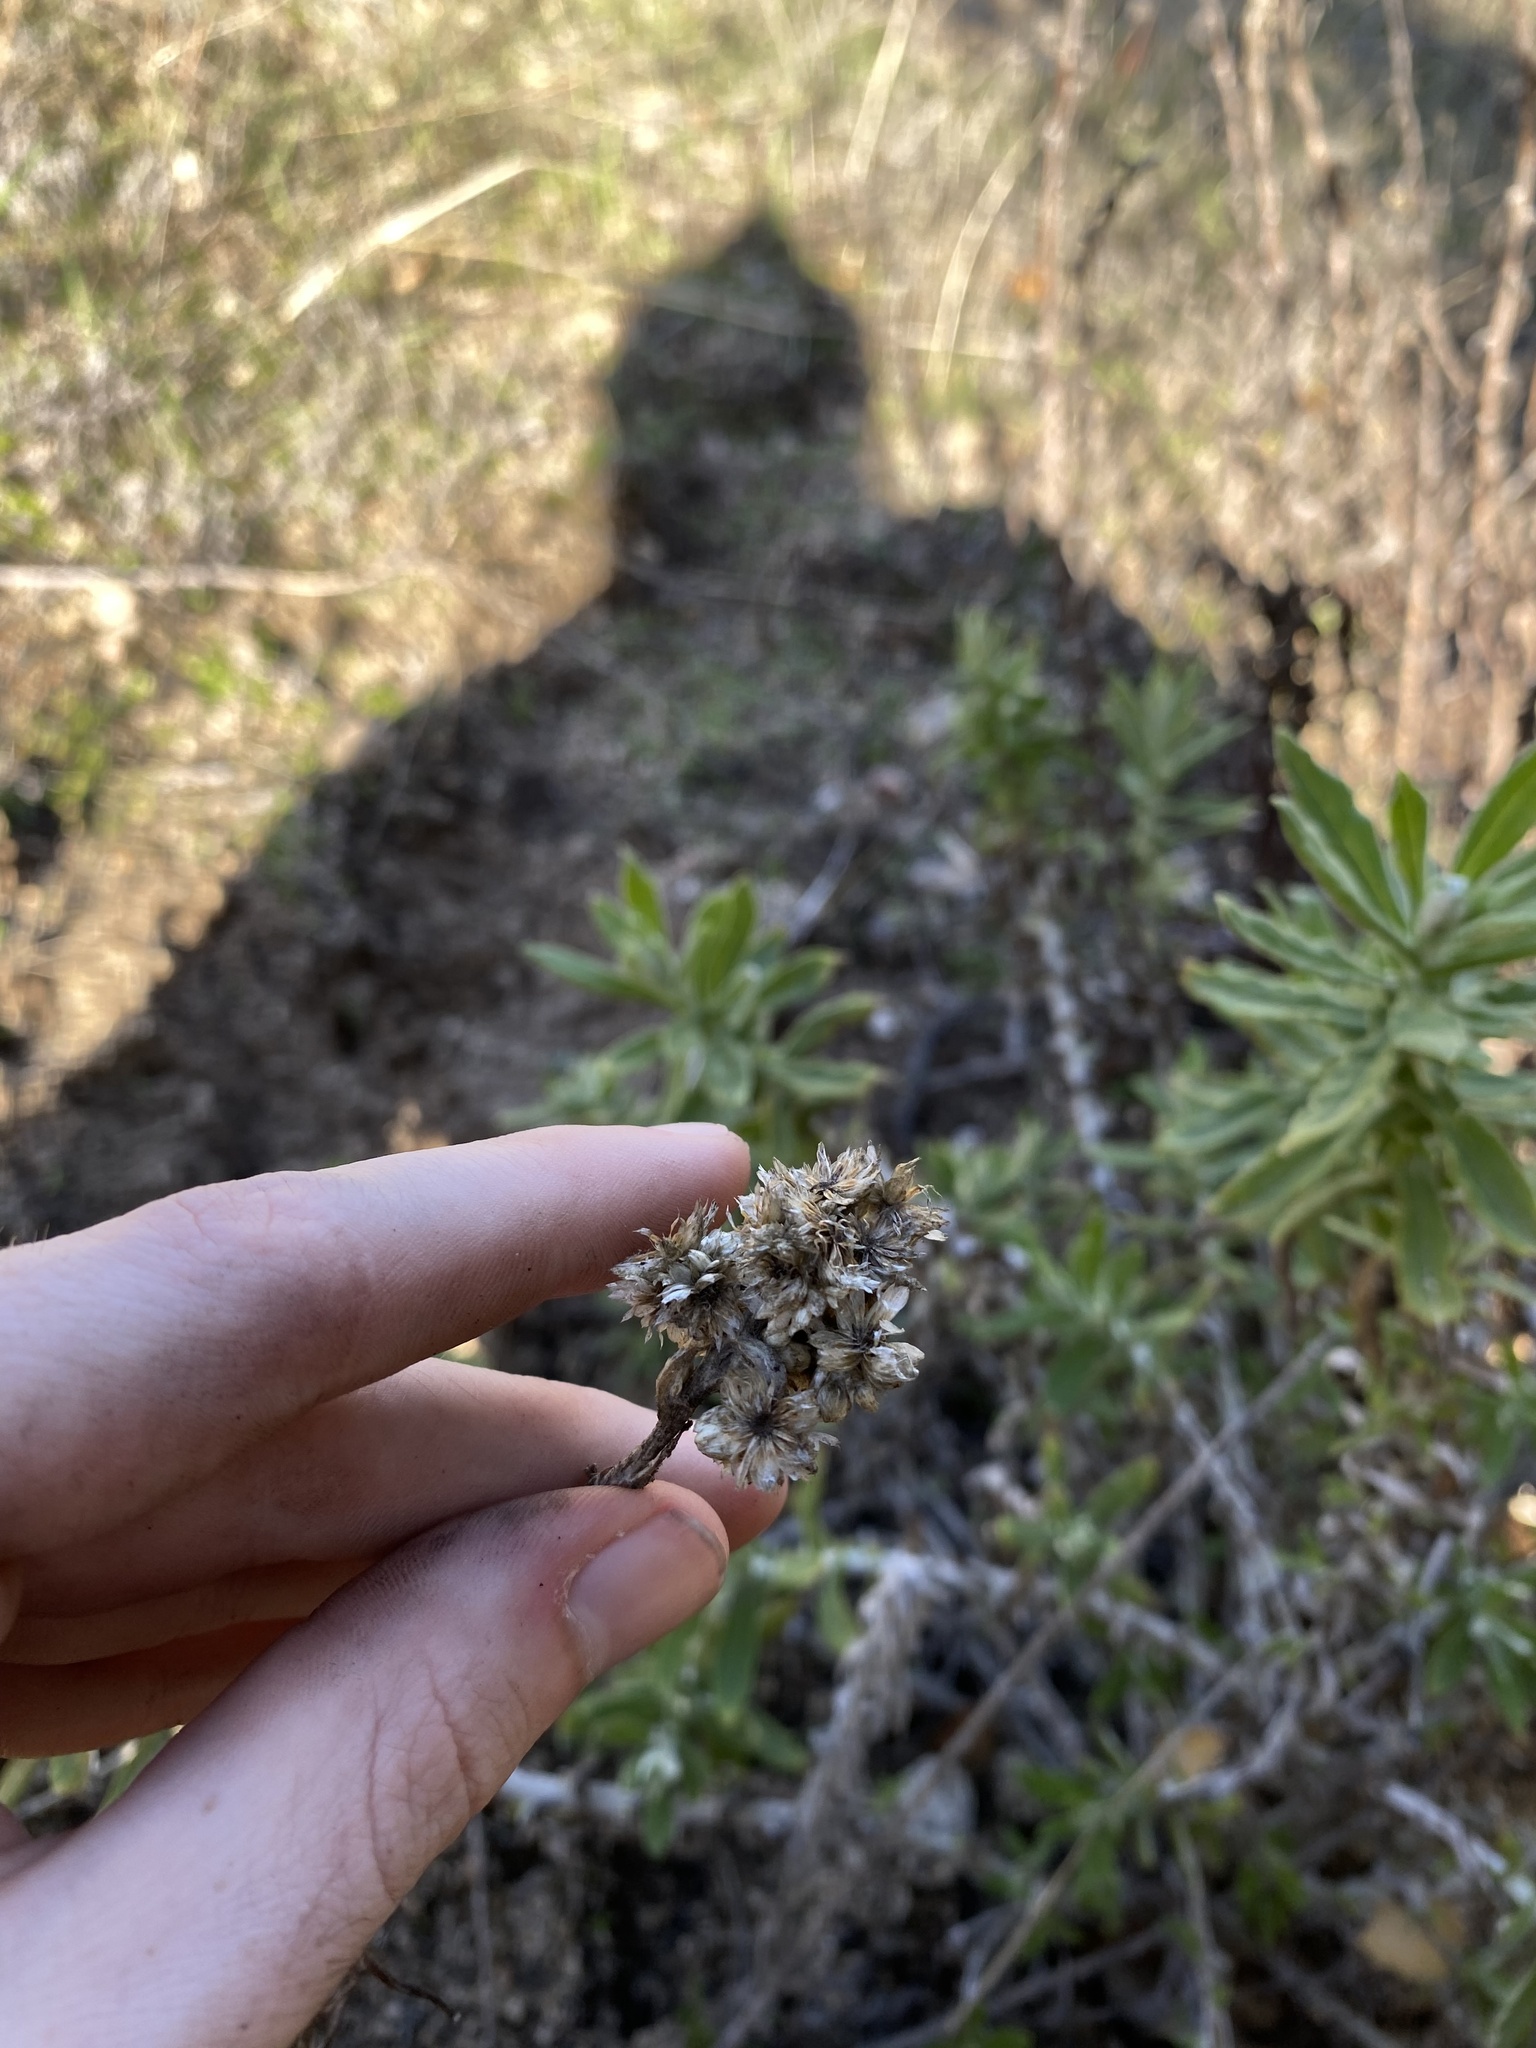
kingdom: Plantae
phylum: Tracheophyta
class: Magnoliopsida
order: Asterales
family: Asteraceae
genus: Pseudognaphalium
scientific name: Pseudognaphalium biolettii
